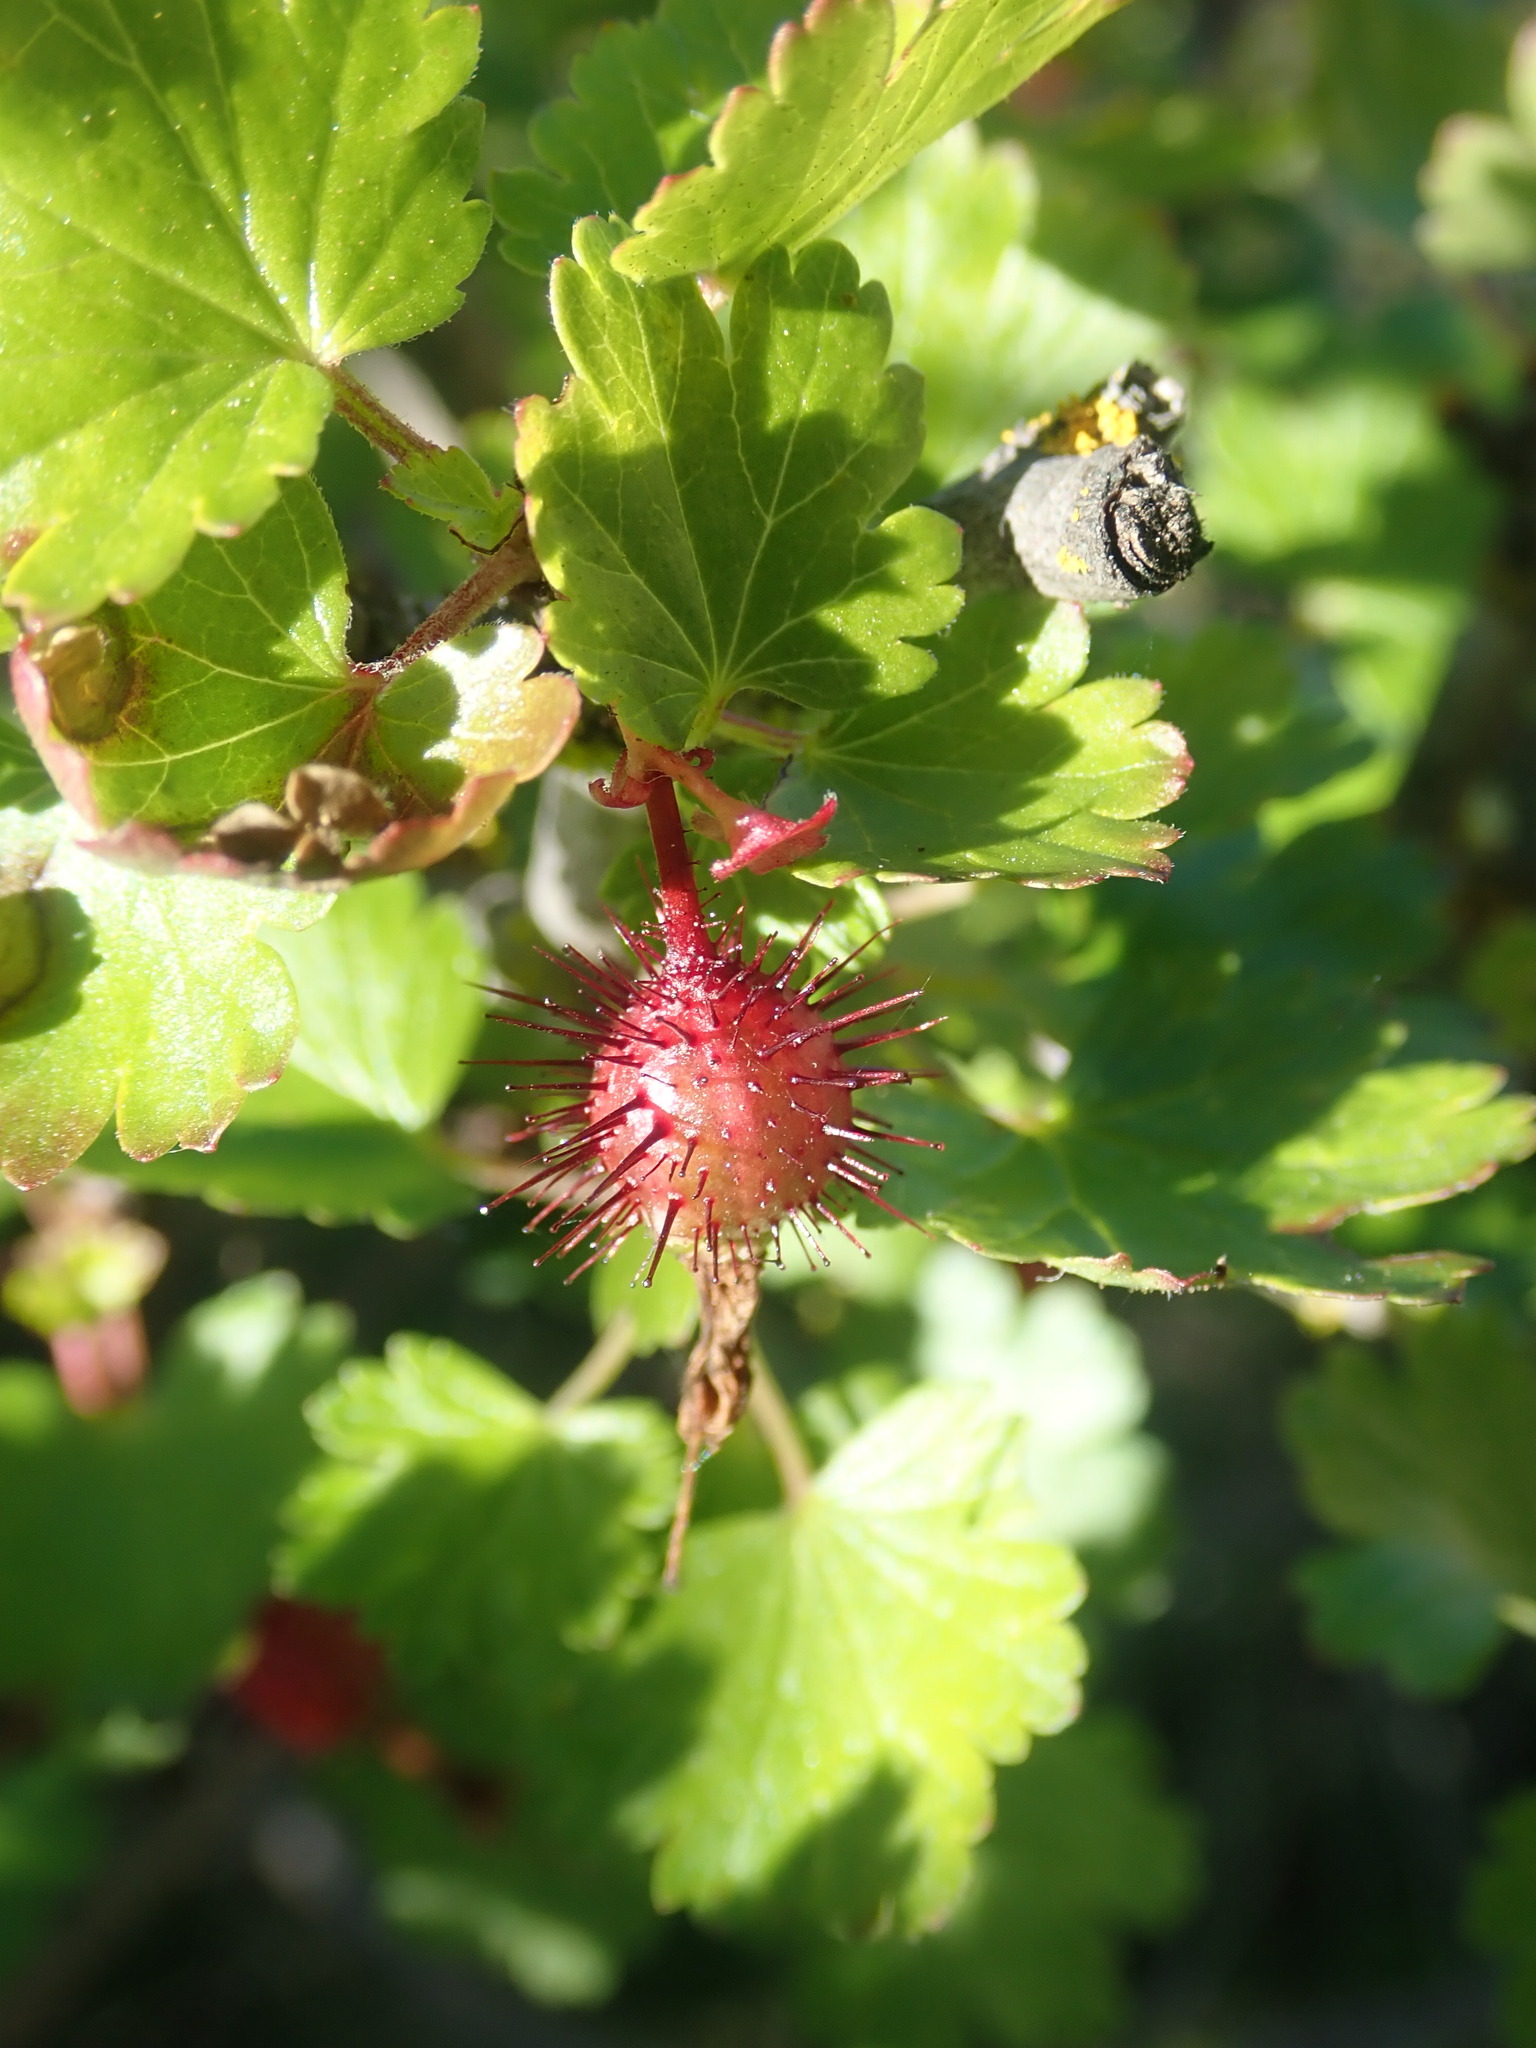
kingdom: Plantae
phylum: Tracheophyta
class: Magnoliopsida
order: Saxifragales
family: Grossulariaceae
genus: Ribes
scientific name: Ribes californicum
